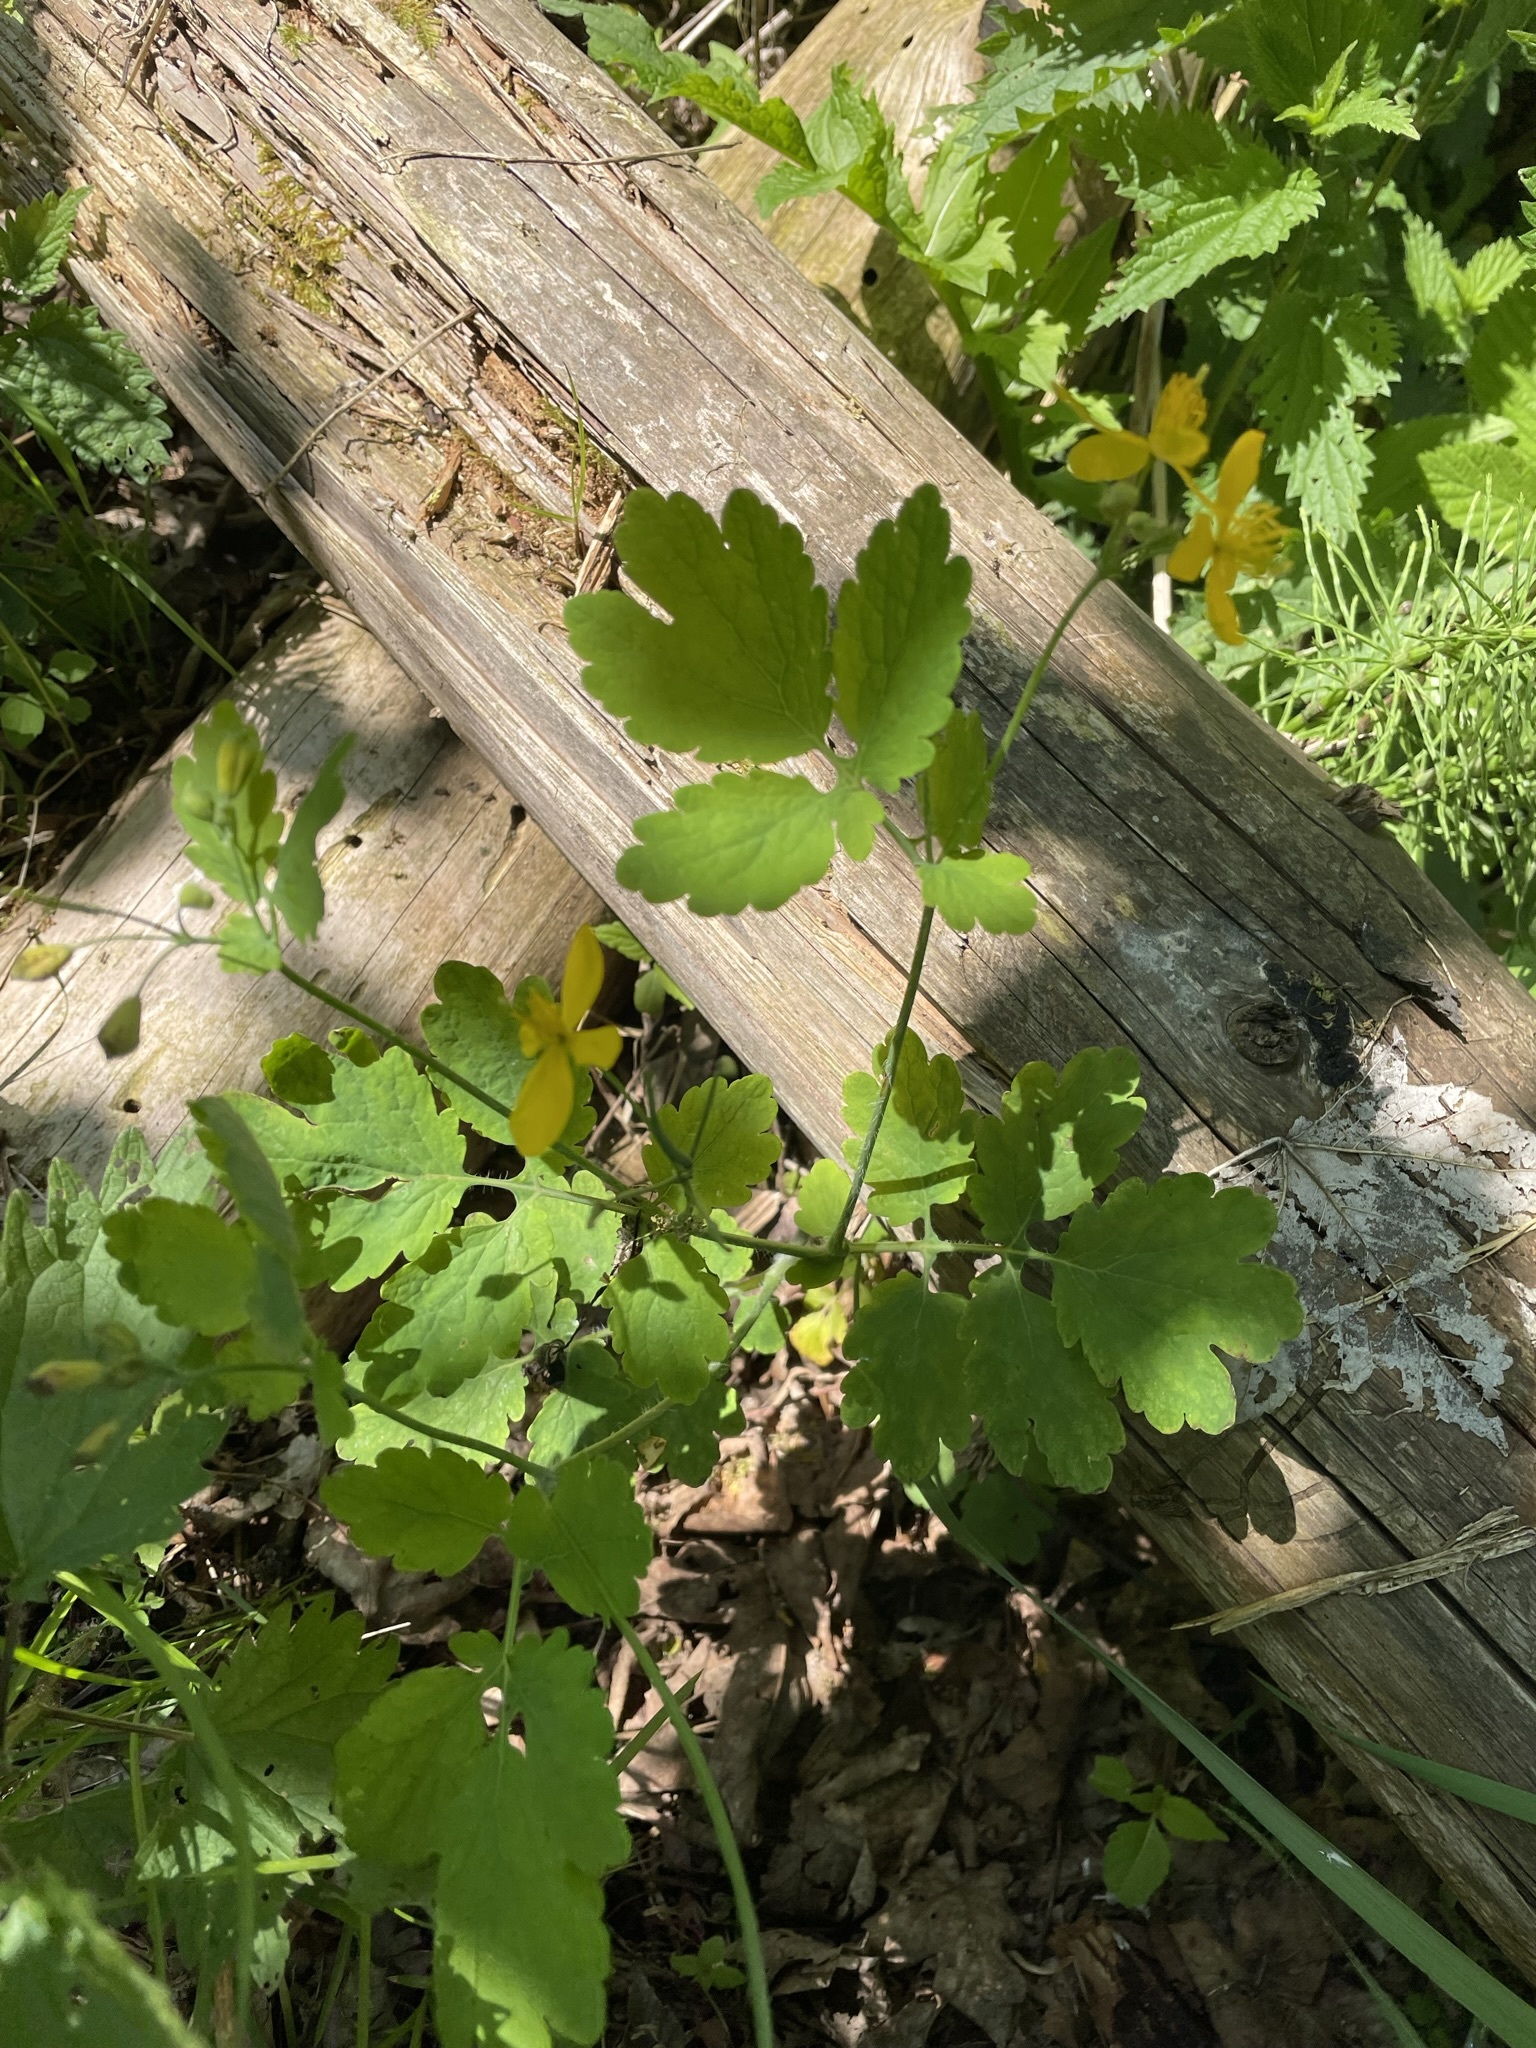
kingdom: Plantae
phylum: Tracheophyta
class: Magnoliopsida
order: Ranunculales
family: Papaveraceae
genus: Chelidonium
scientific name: Chelidonium majus
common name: Greater celandine
